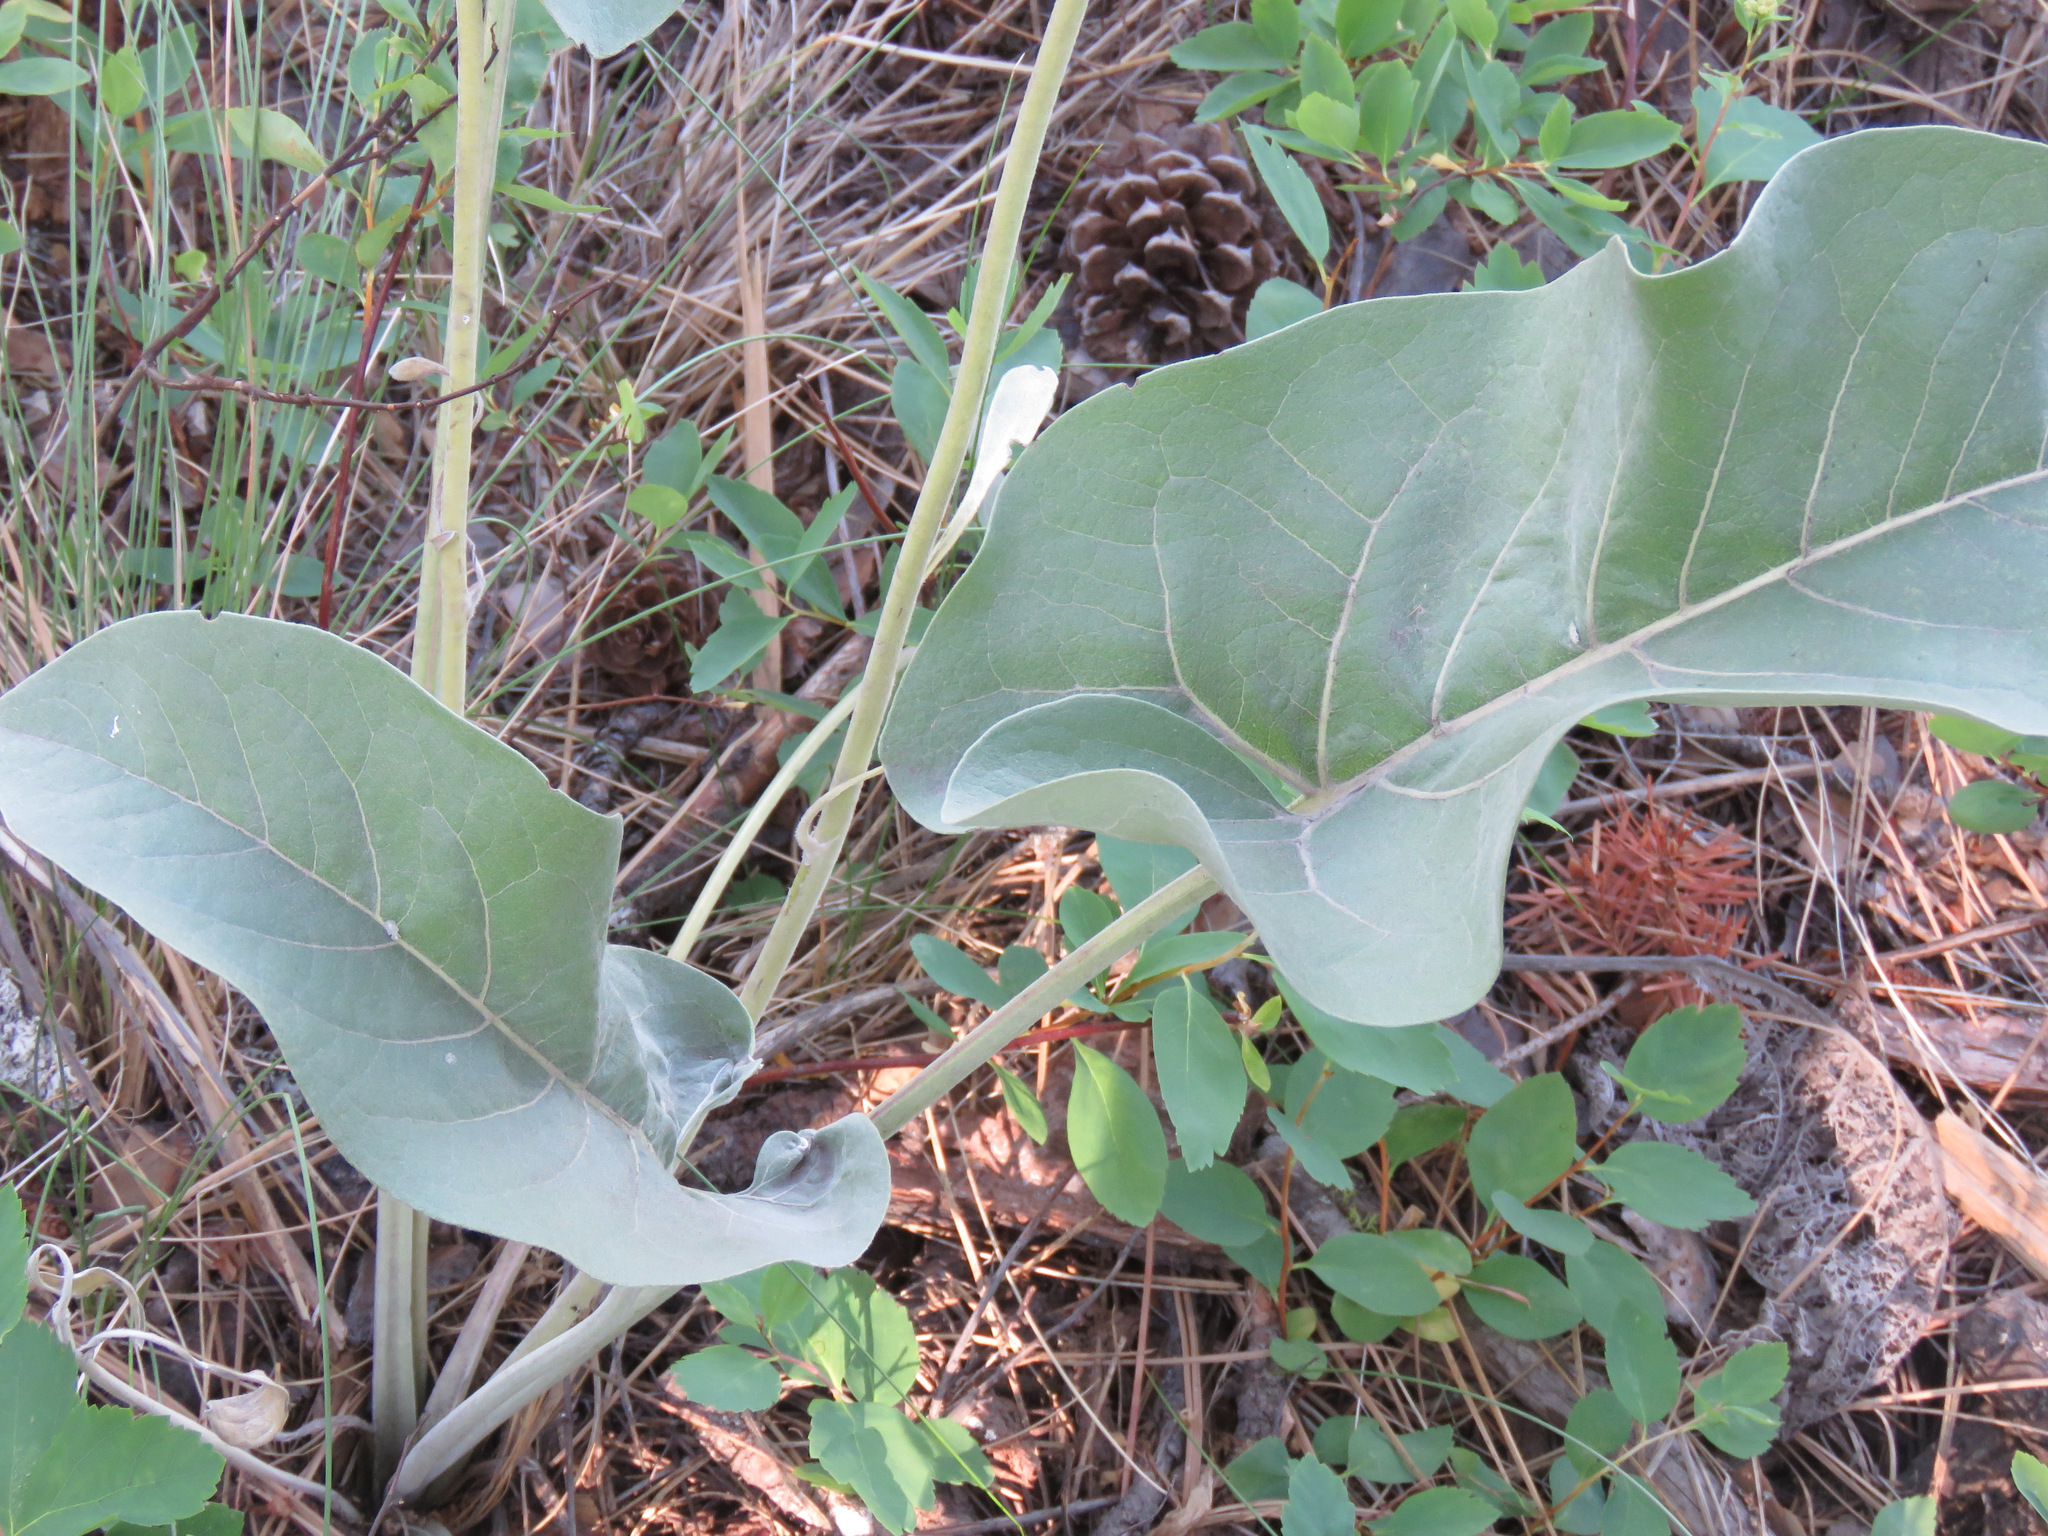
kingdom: Plantae
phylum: Tracheophyta
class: Magnoliopsida
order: Asterales
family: Asteraceae
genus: Wyethia
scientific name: Wyethia sagittata
